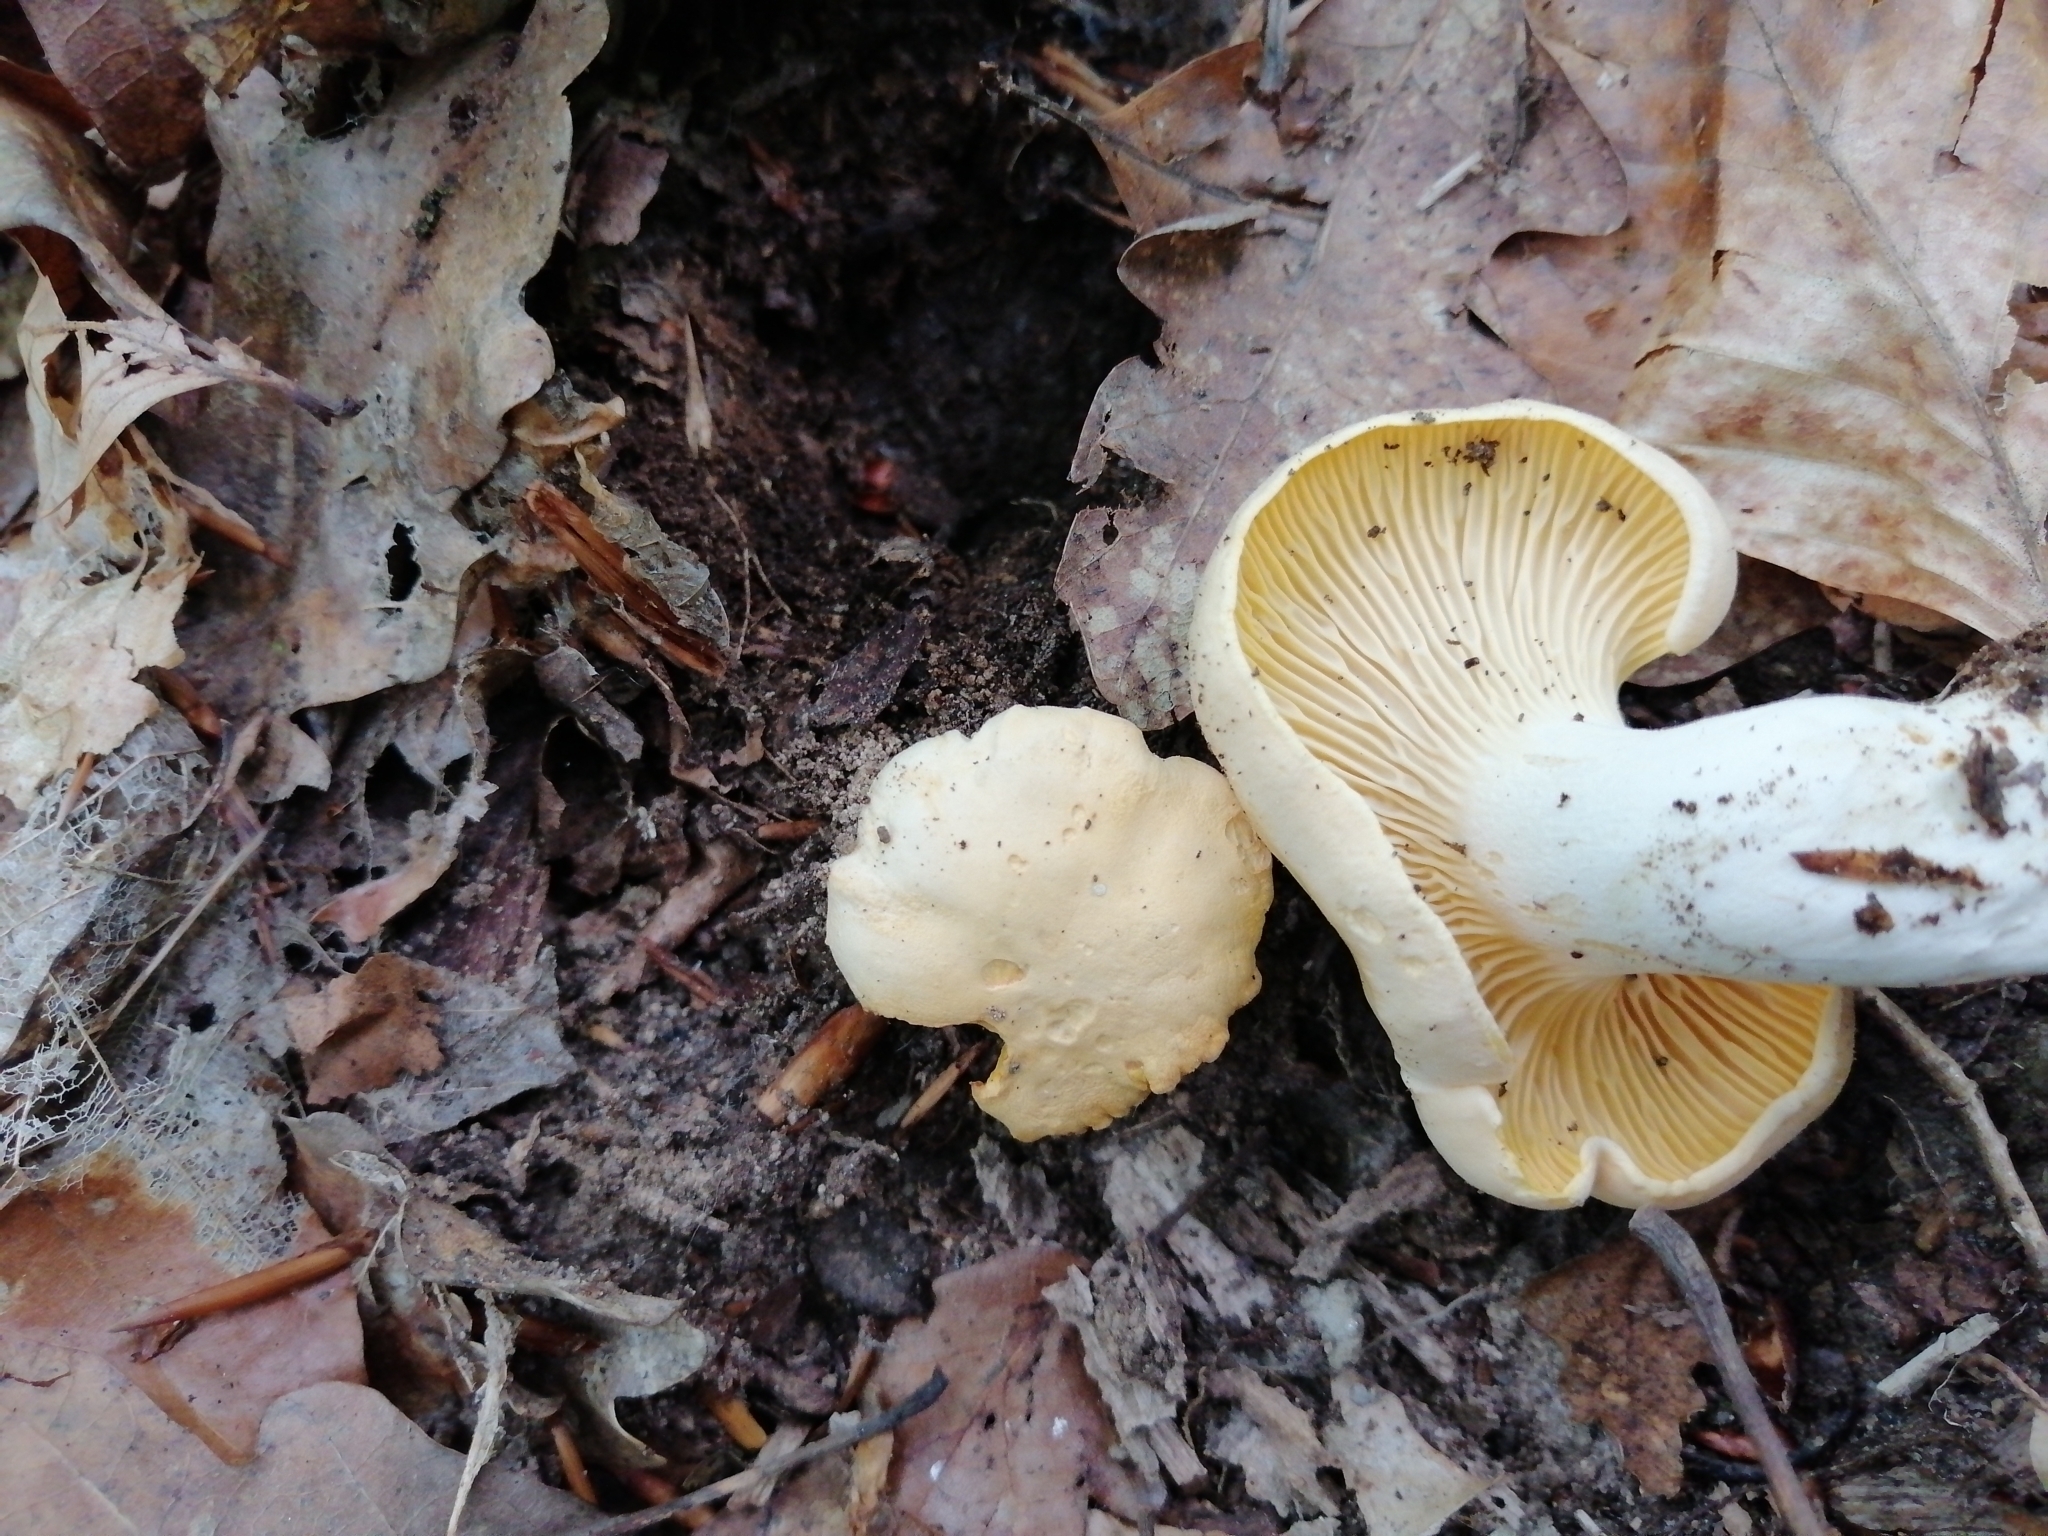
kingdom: Fungi
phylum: Basidiomycota
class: Agaricomycetes
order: Cantharellales
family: Hydnaceae
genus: Cantharellus
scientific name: Cantharellus pallens
